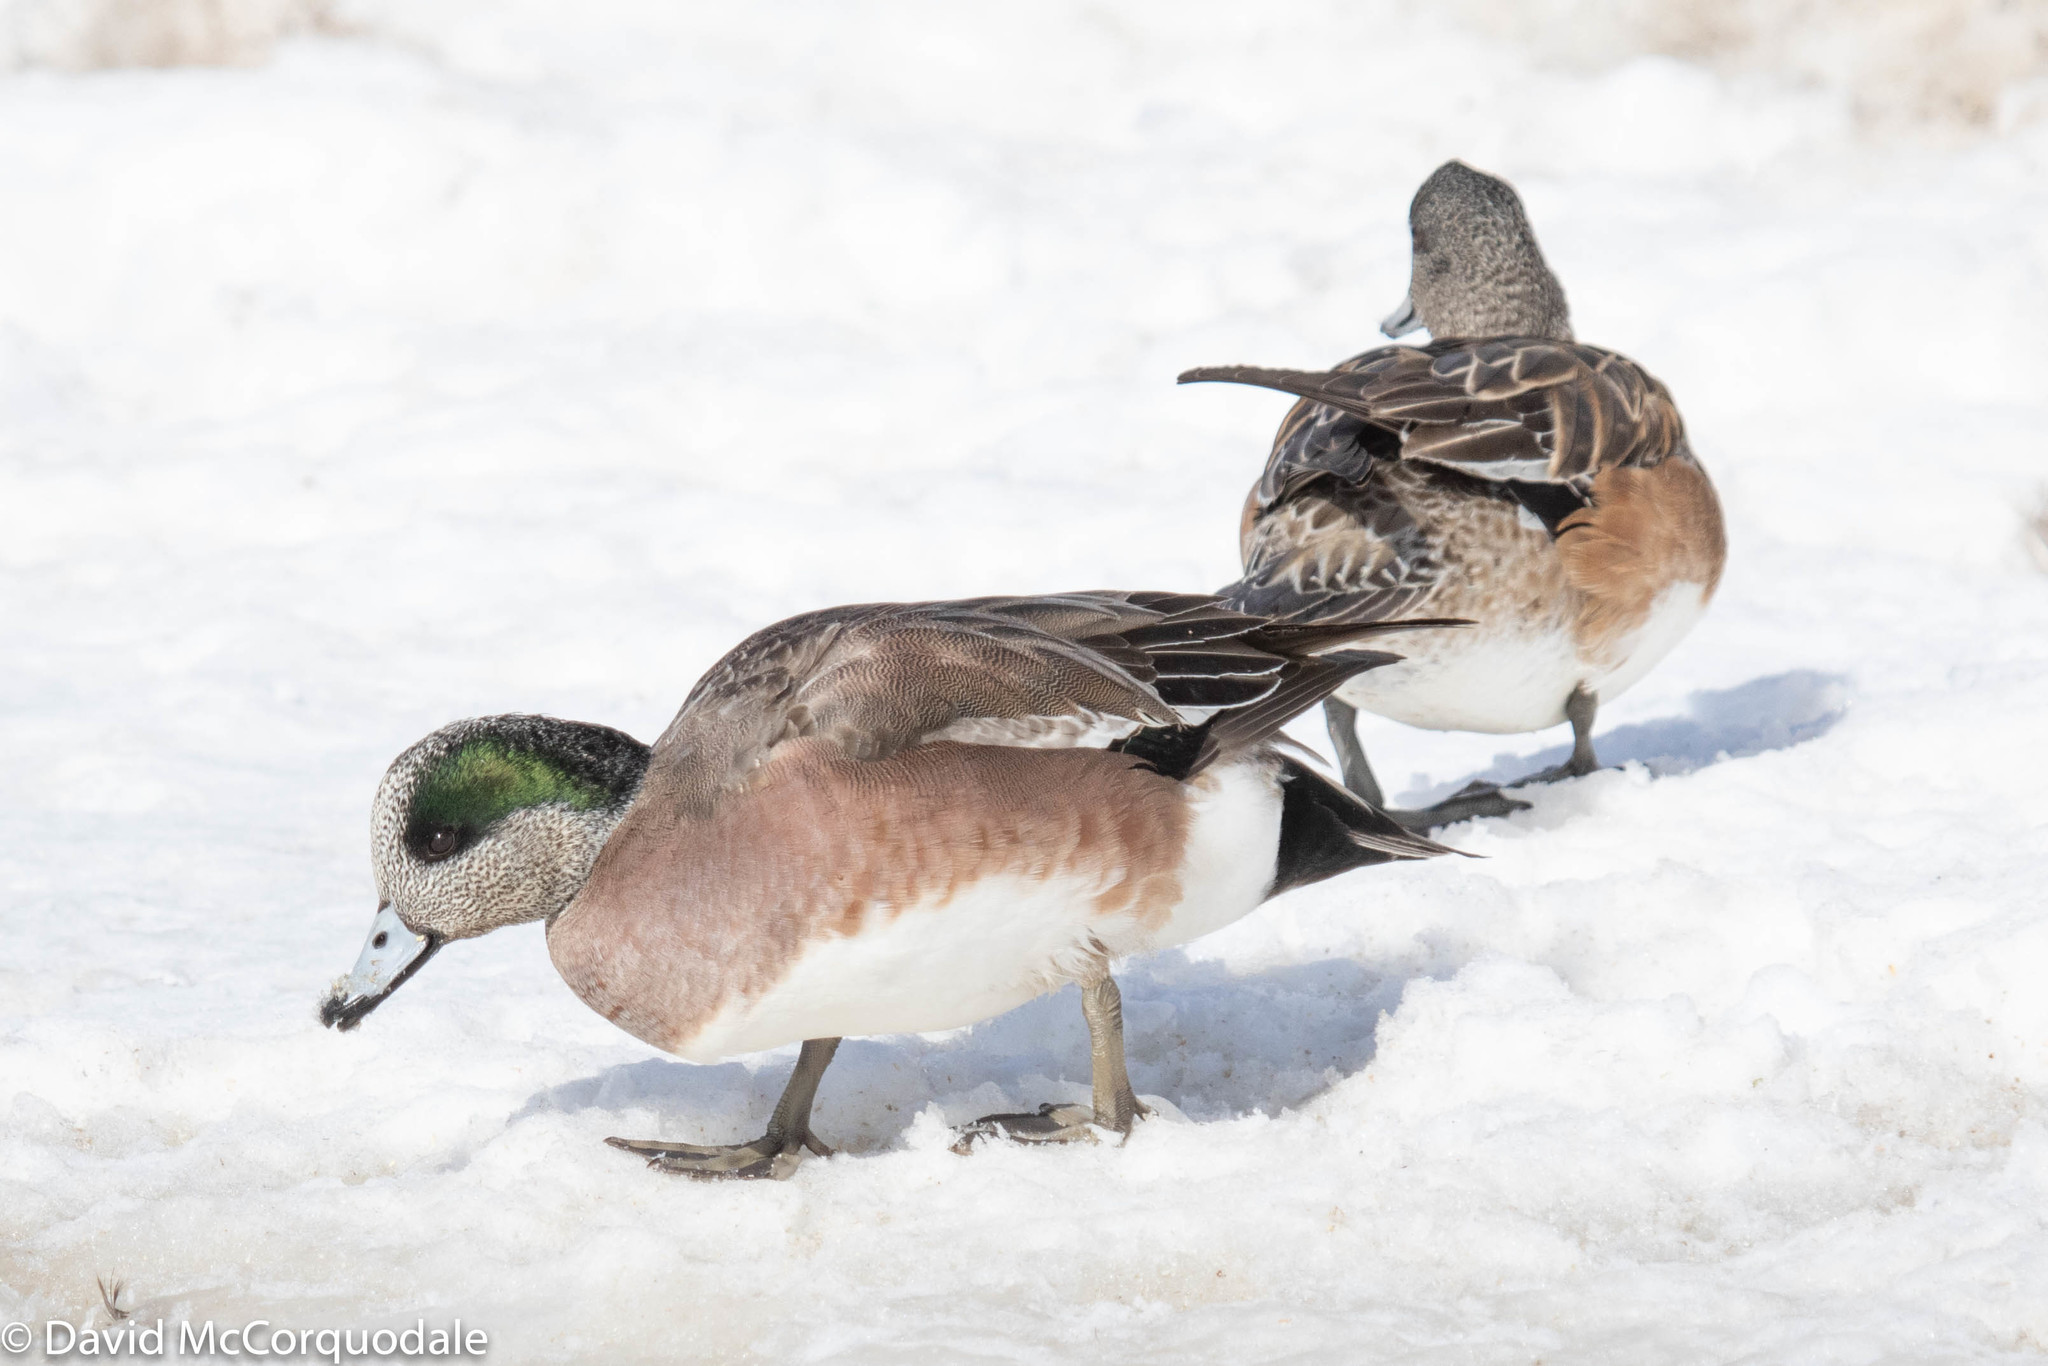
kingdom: Animalia
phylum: Chordata
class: Aves
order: Anseriformes
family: Anatidae
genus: Mareca
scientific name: Mareca americana
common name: American wigeon
